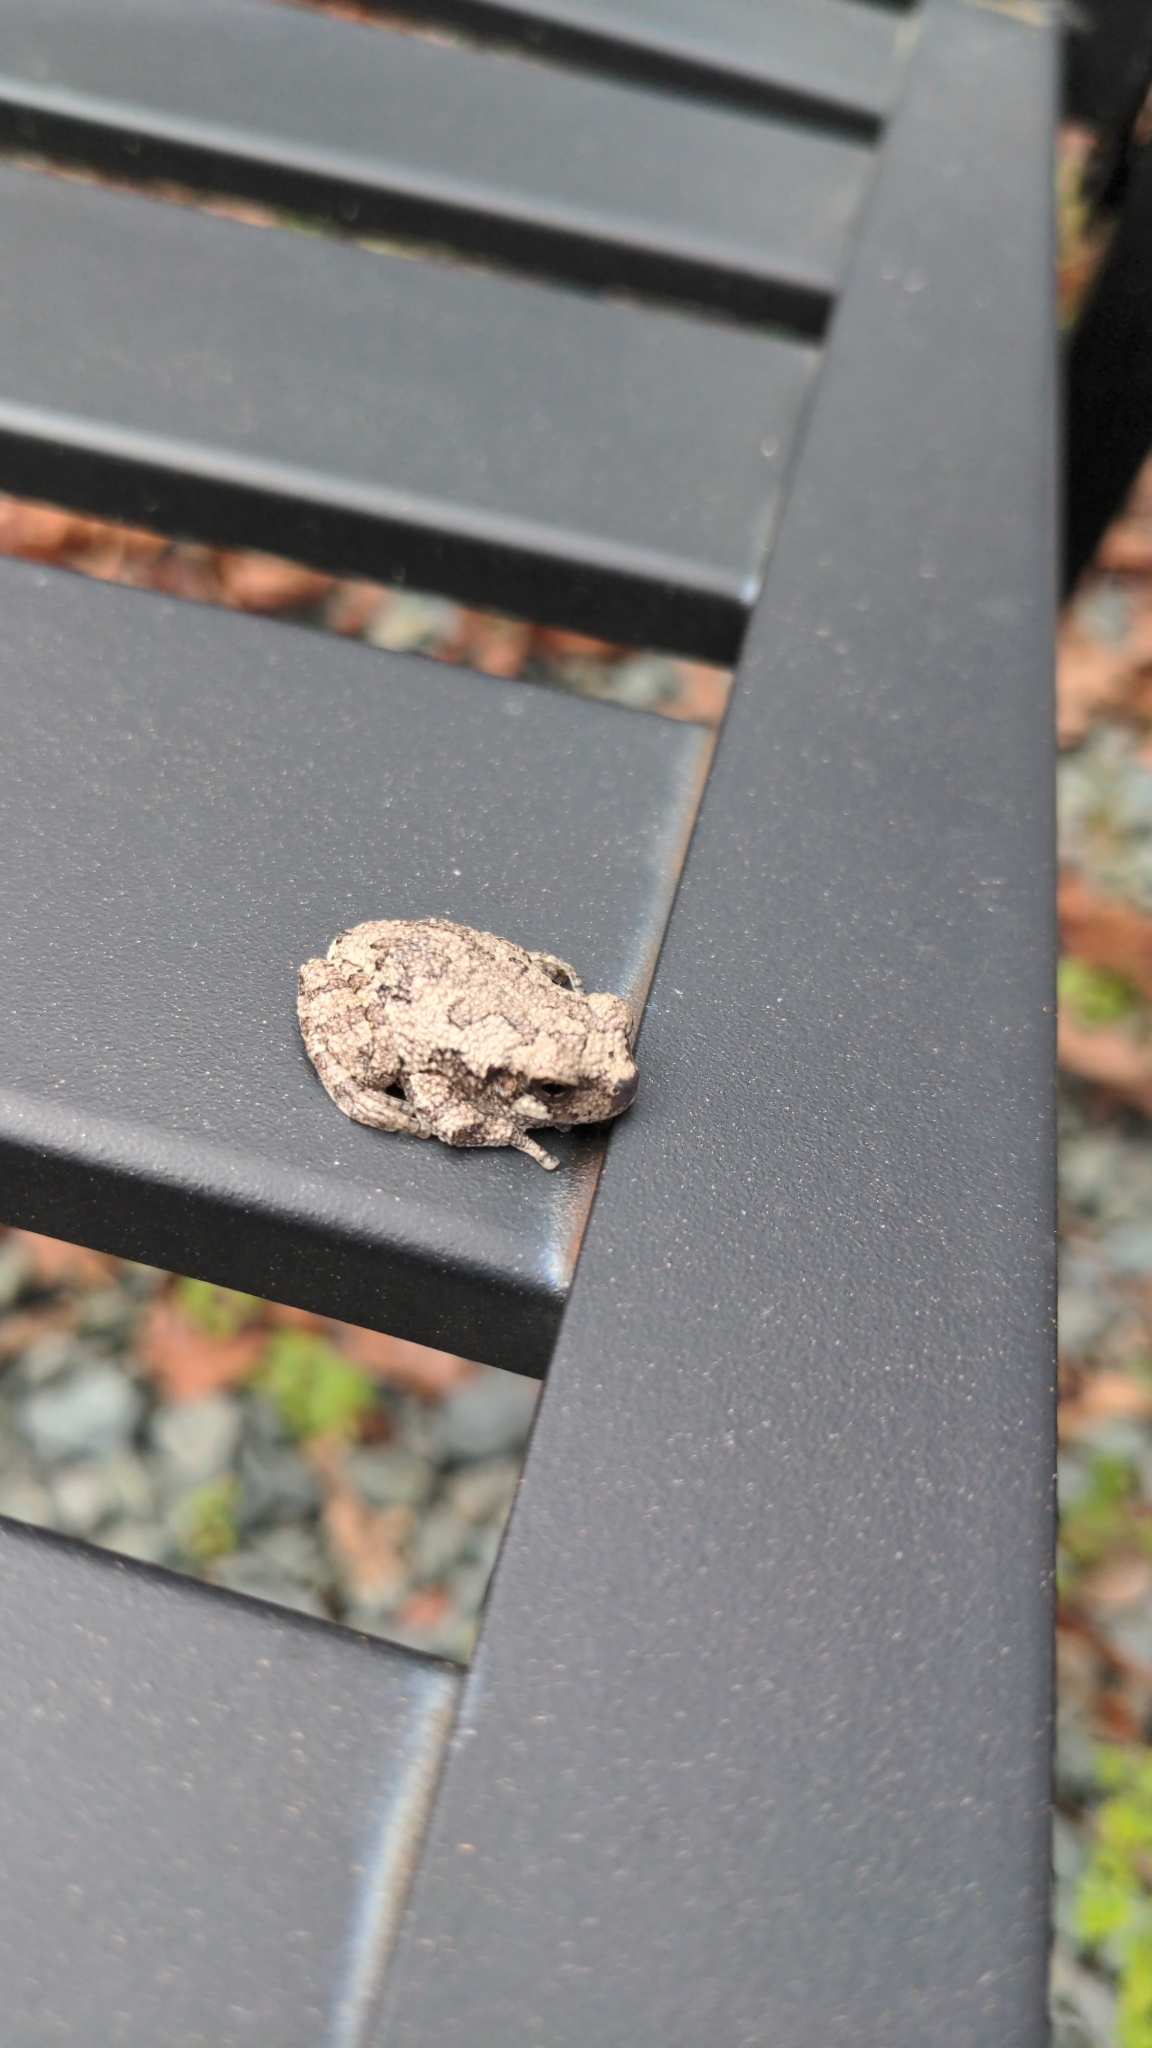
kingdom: Animalia
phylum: Chordata
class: Amphibia
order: Anura
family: Hylidae
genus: Dryophytes
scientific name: Dryophytes chrysoscelis
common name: Cope's gray treefrog
